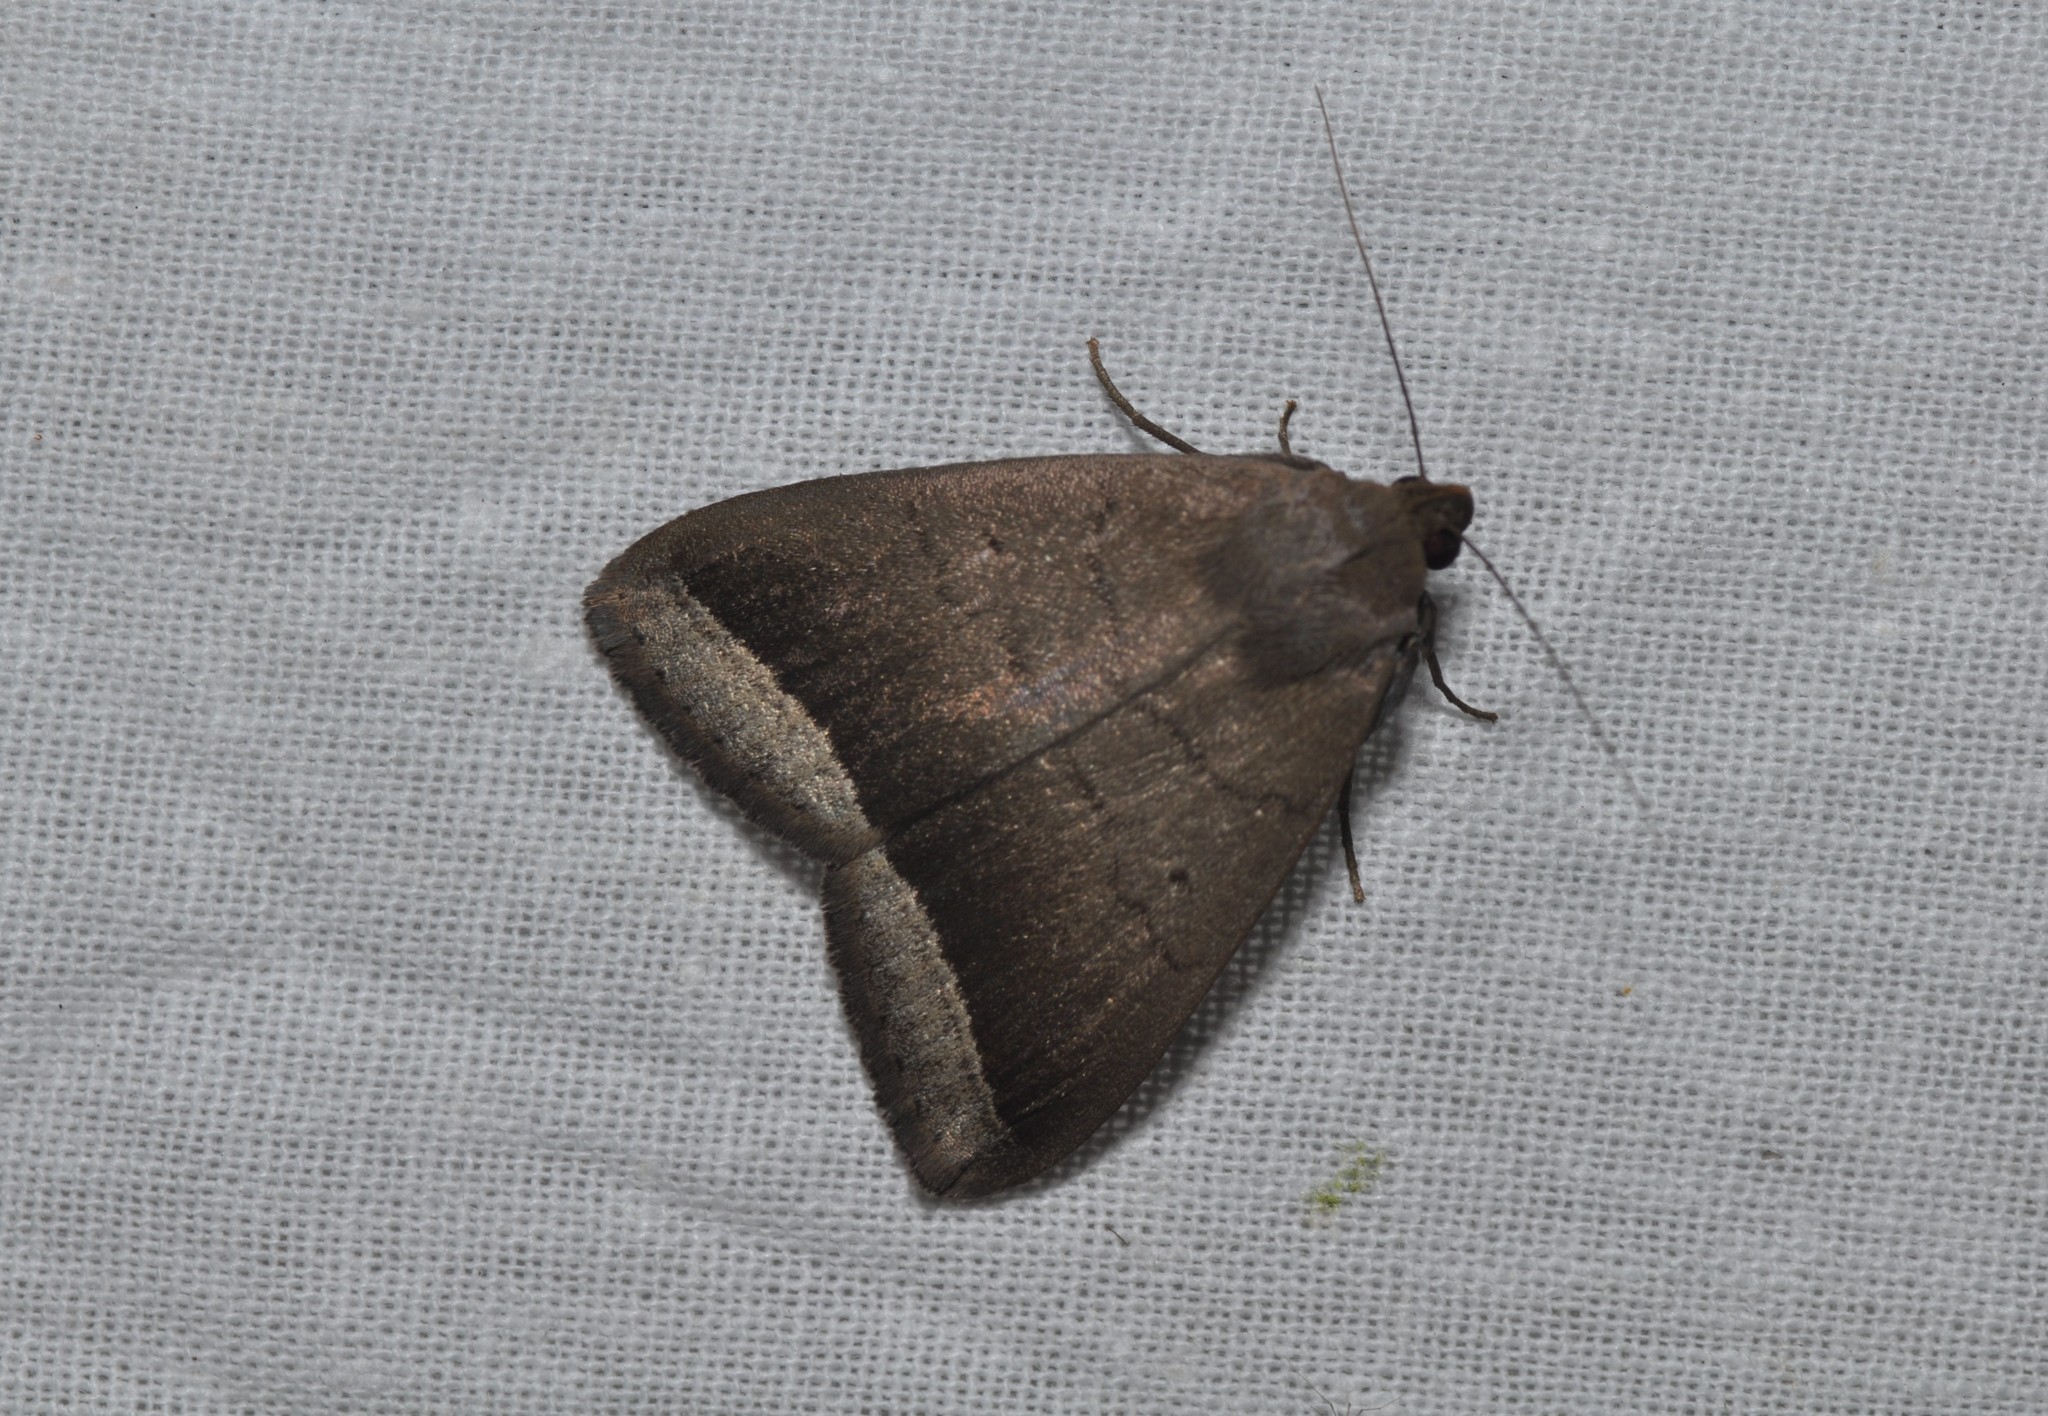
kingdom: Animalia
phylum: Arthropoda
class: Insecta
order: Lepidoptera
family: Erebidae
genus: Simplicia
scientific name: Simplicia bimarginata
